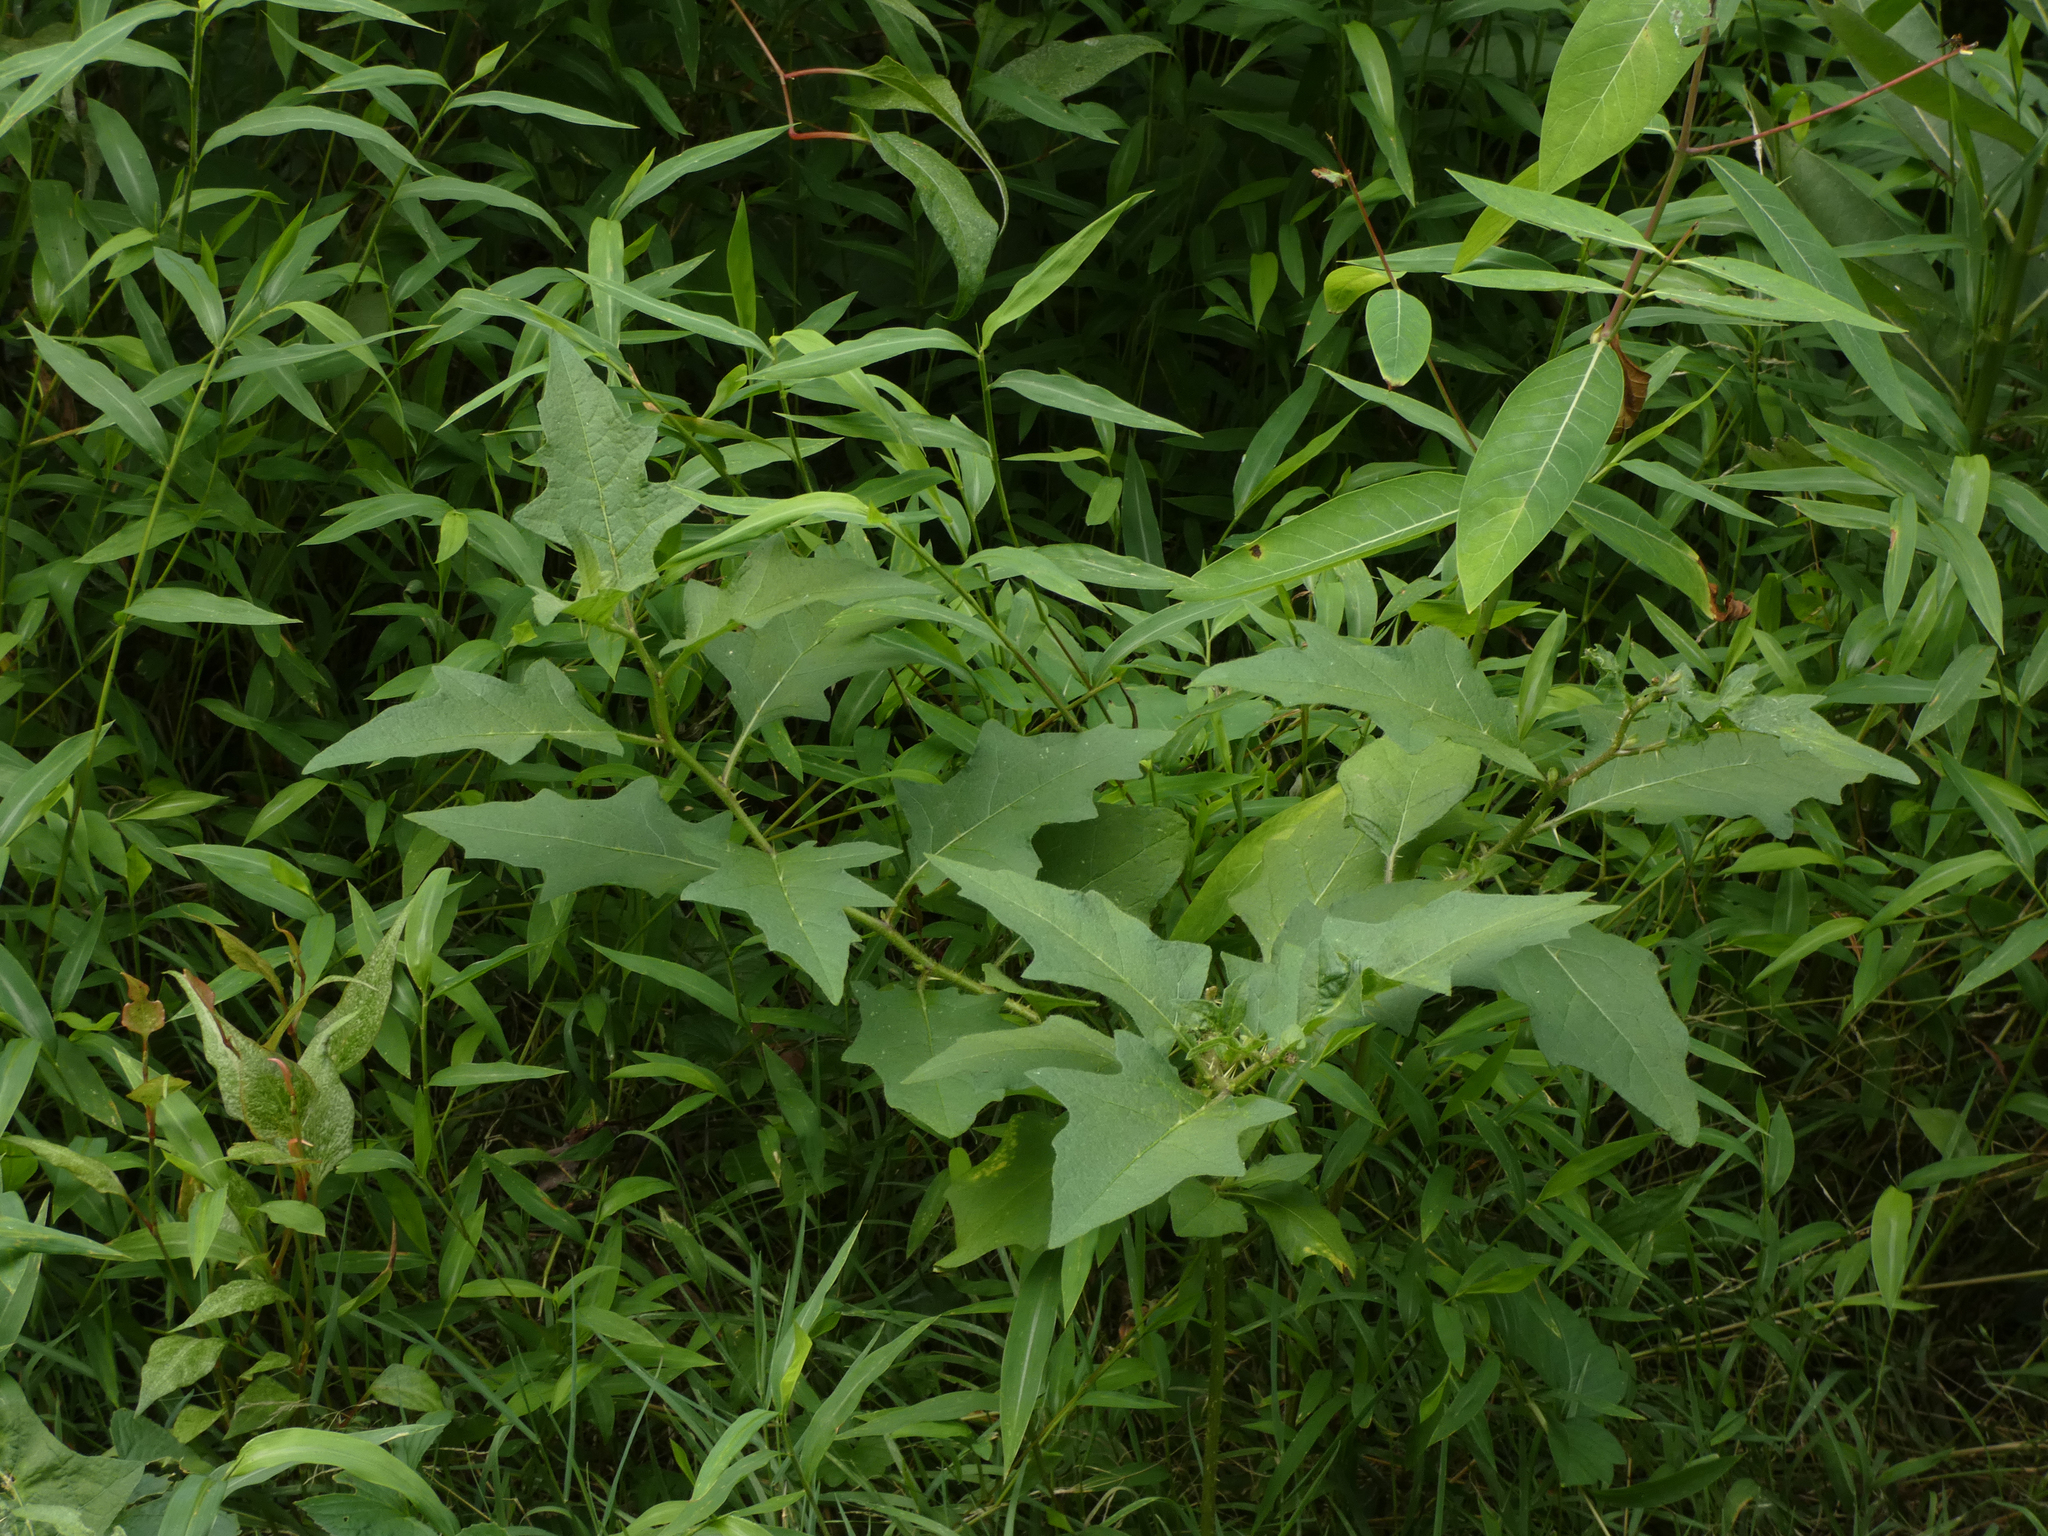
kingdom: Plantae
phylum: Tracheophyta
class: Magnoliopsida
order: Solanales
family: Solanaceae
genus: Solanum
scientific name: Solanum carolinense
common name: Horse-nettle
